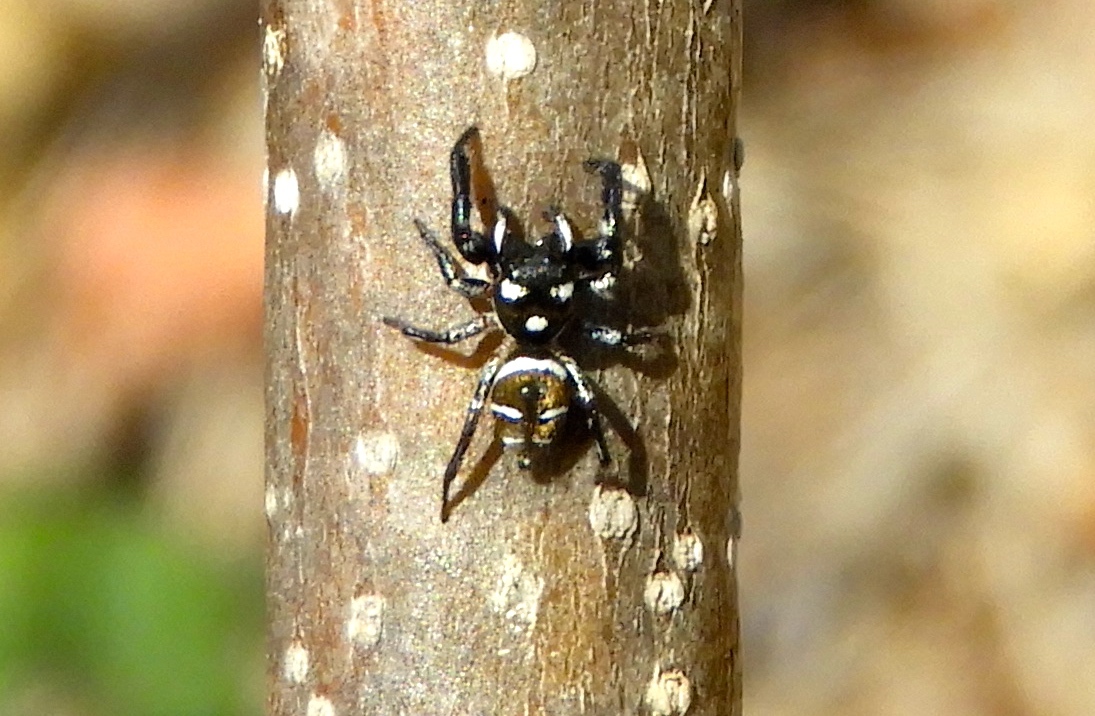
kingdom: Animalia
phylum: Arthropoda
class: Arachnida
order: Araneae
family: Salticidae
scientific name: Salticidae
